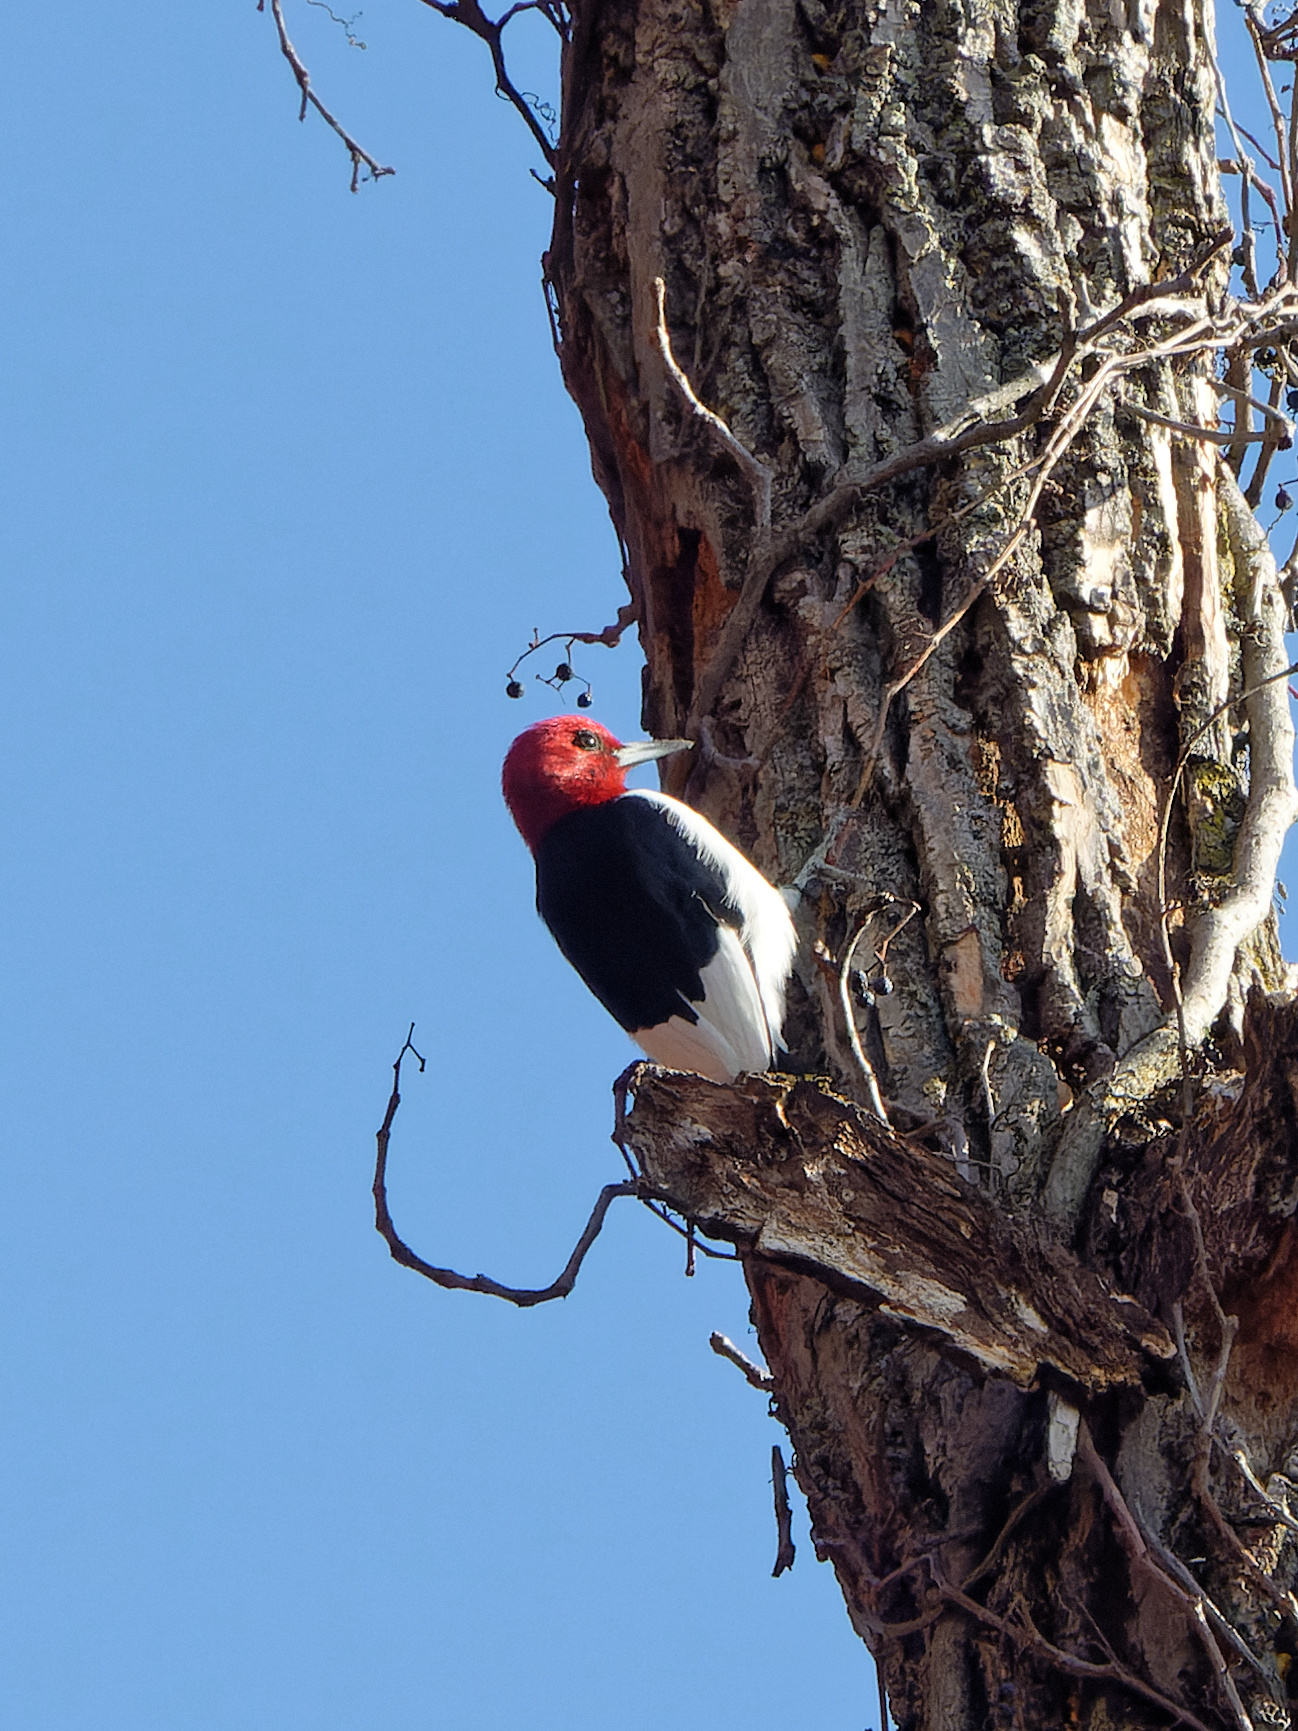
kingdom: Animalia
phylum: Chordata
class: Aves
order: Piciformes
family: Picidae
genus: Melanerpes
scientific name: Melanerpes erythrocephalus
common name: Red-headed woodpecker
